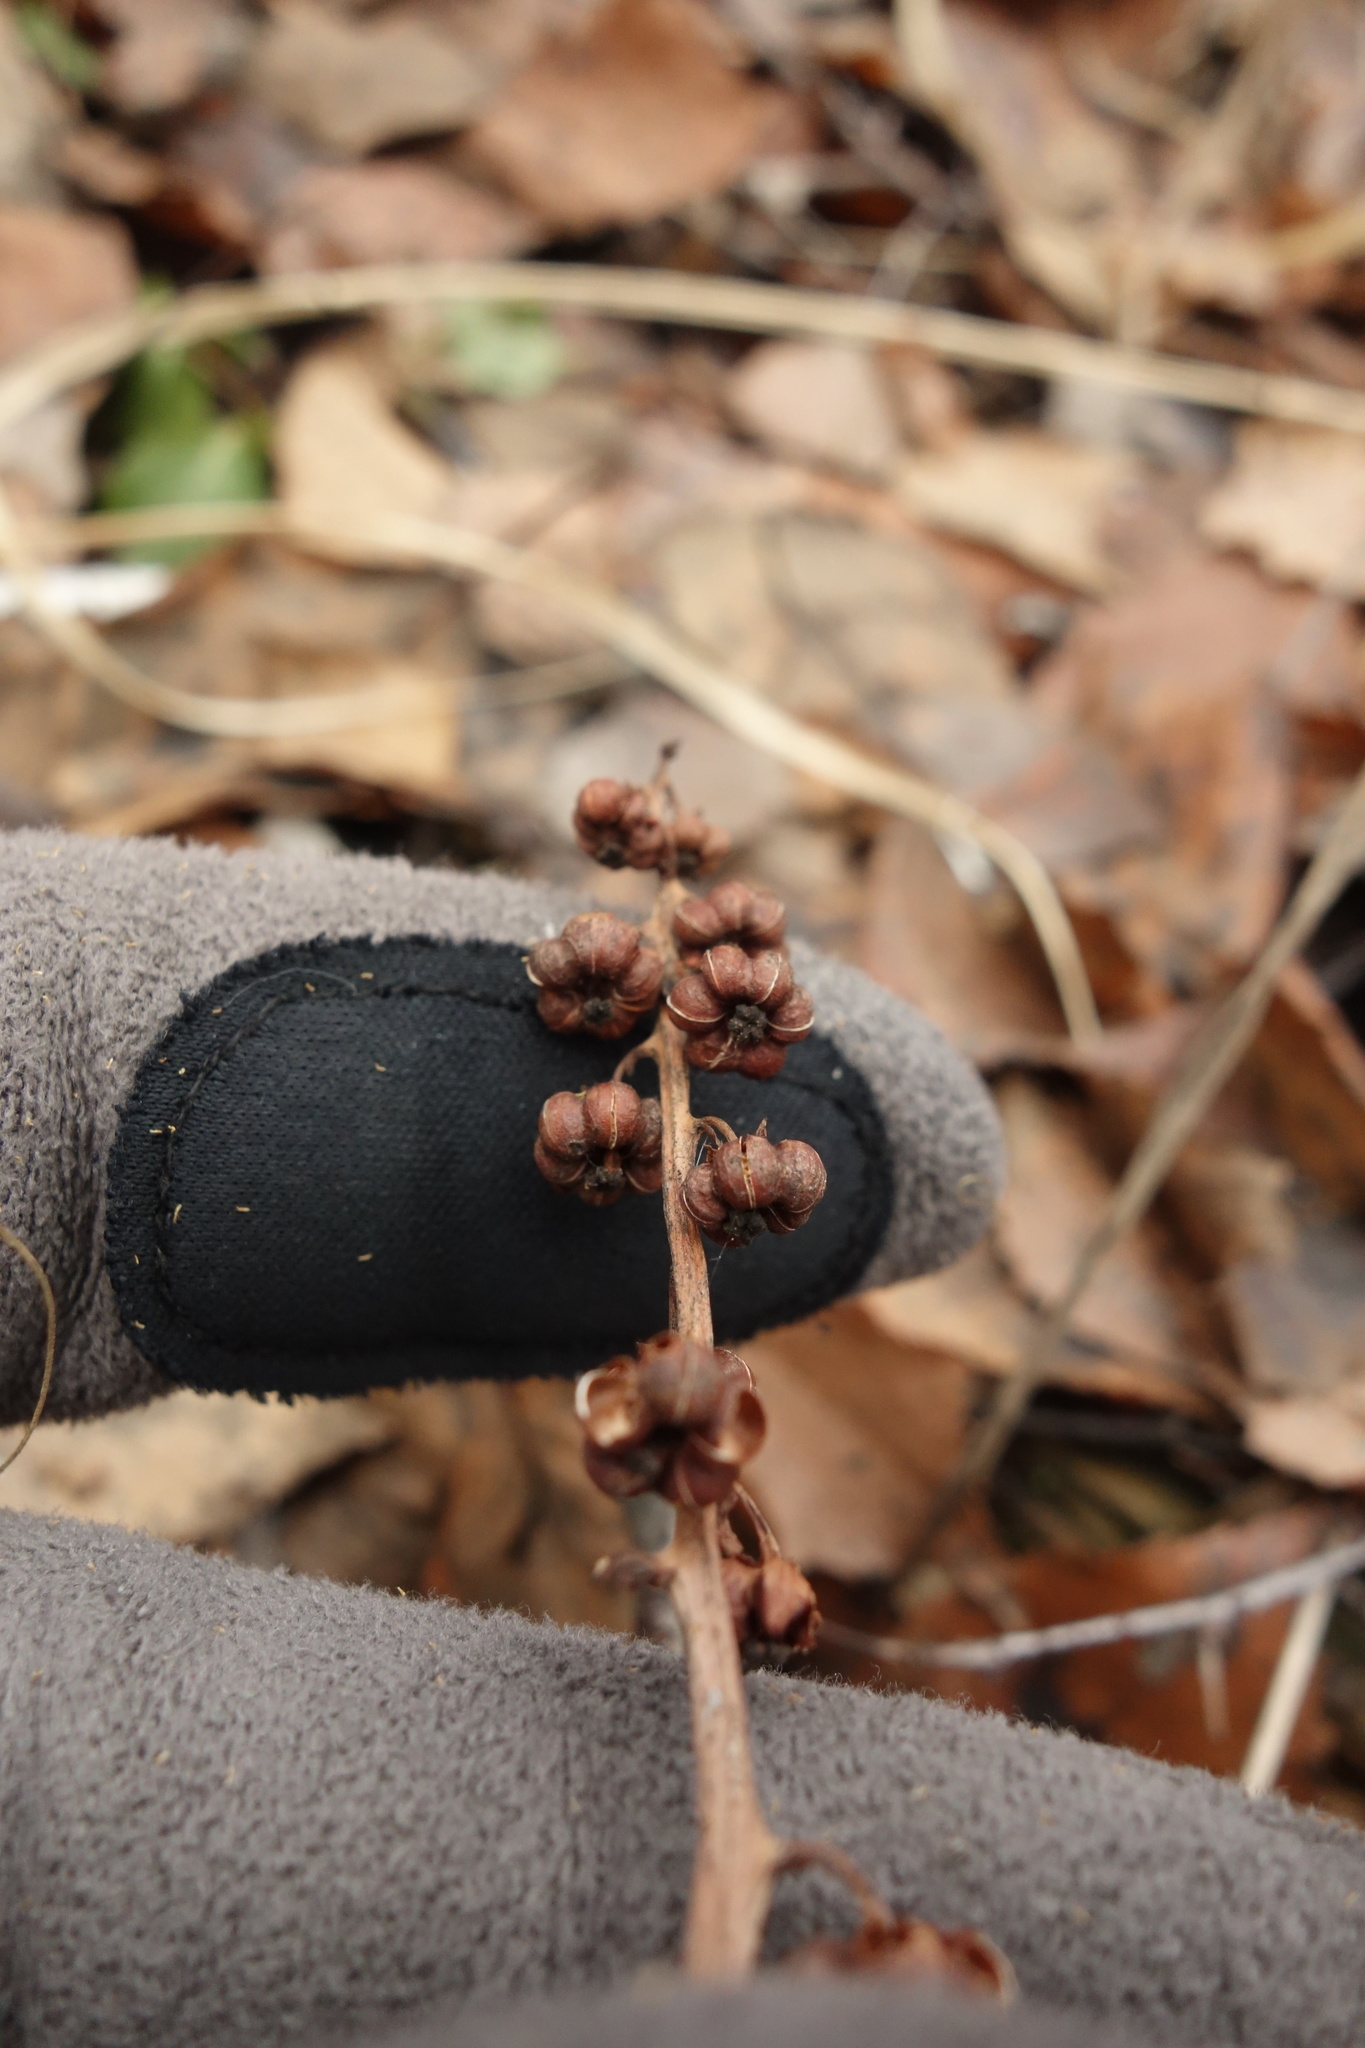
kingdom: Plantae
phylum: Tracheophyta
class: Magnoliopsida
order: Ericales
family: Ericaceae
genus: Pyrola
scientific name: Pyrola minor
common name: Common wintergreen
